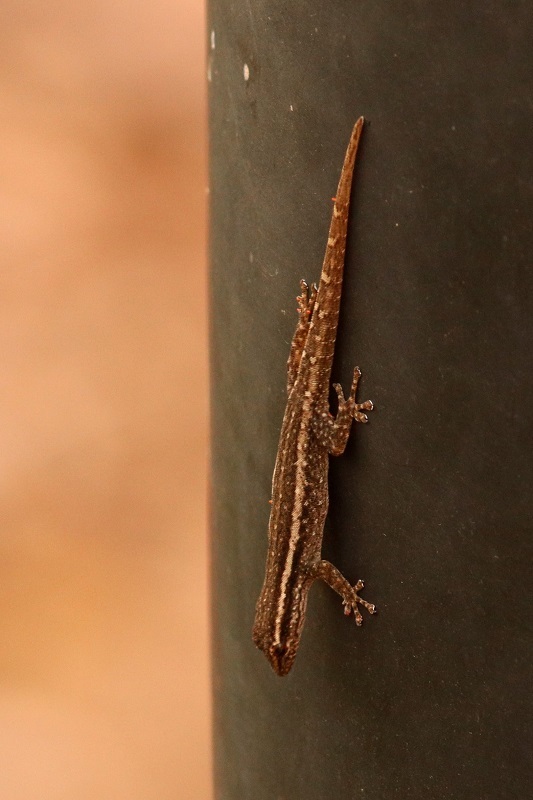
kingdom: Animalia
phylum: Chordata
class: Squamata
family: Gekkonidae
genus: Lygodactylus
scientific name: Lygodactylus capensis
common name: Cape dwarf gecko
